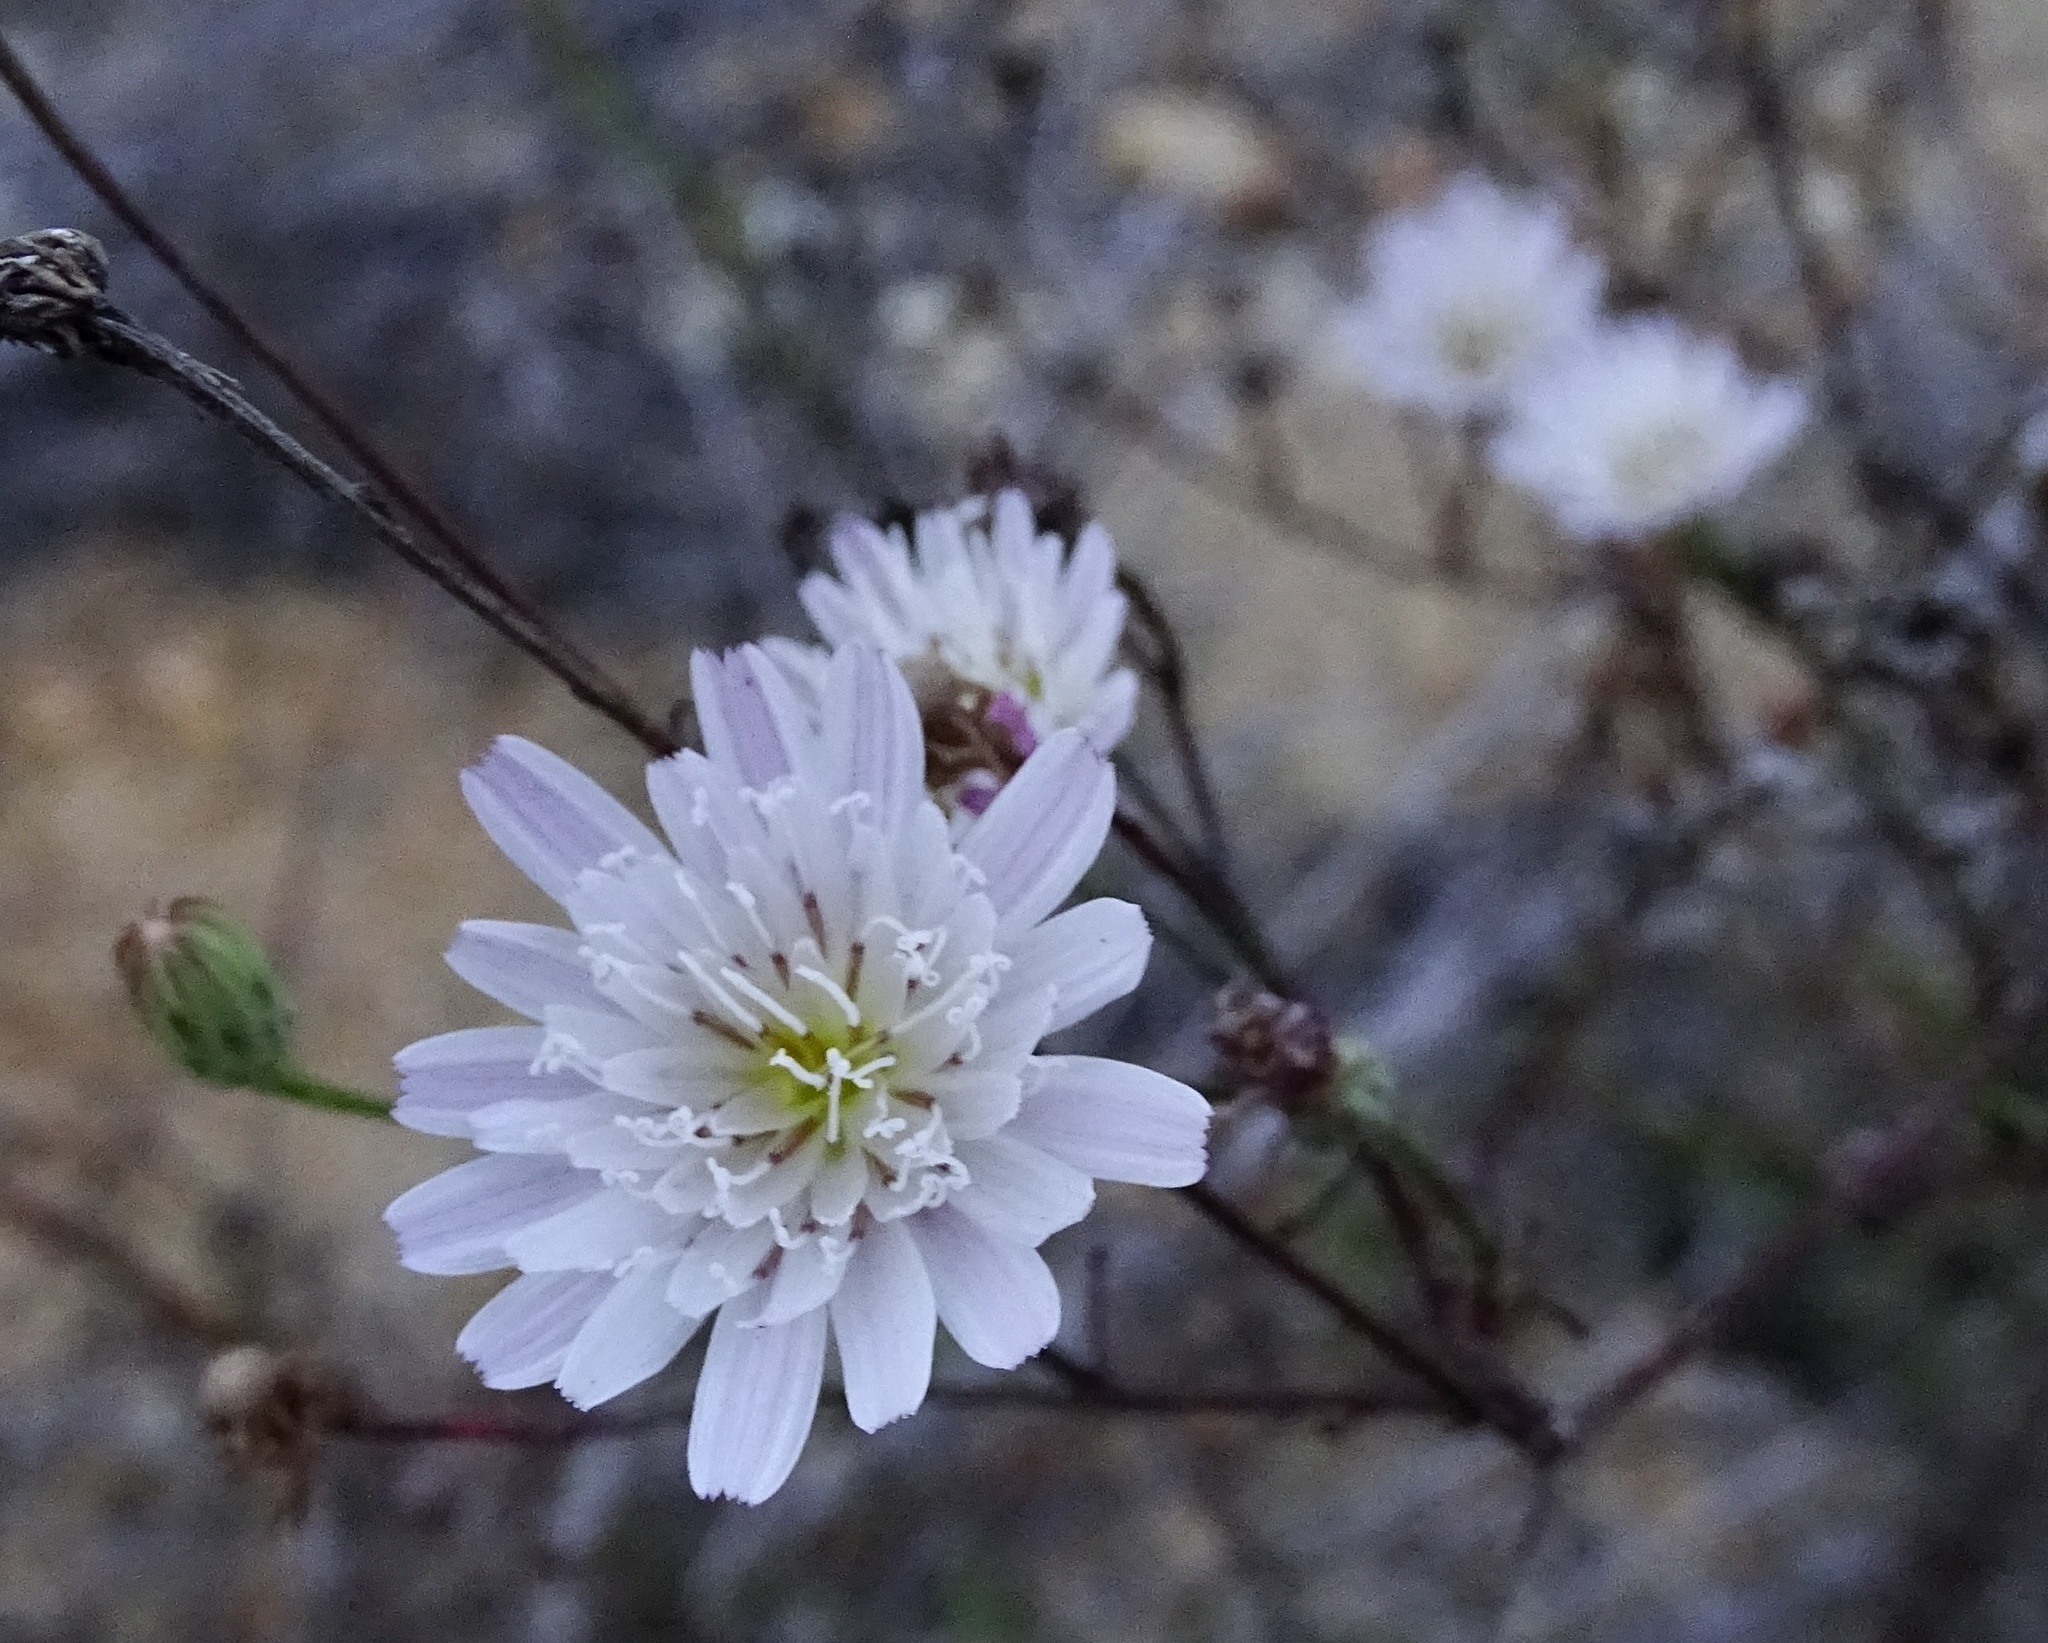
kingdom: Plantae
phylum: Tracheophyta
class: Magnoliopsida
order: Asterales
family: Asteraceae
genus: Malacothrix
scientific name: Malacothrix saxatilis
